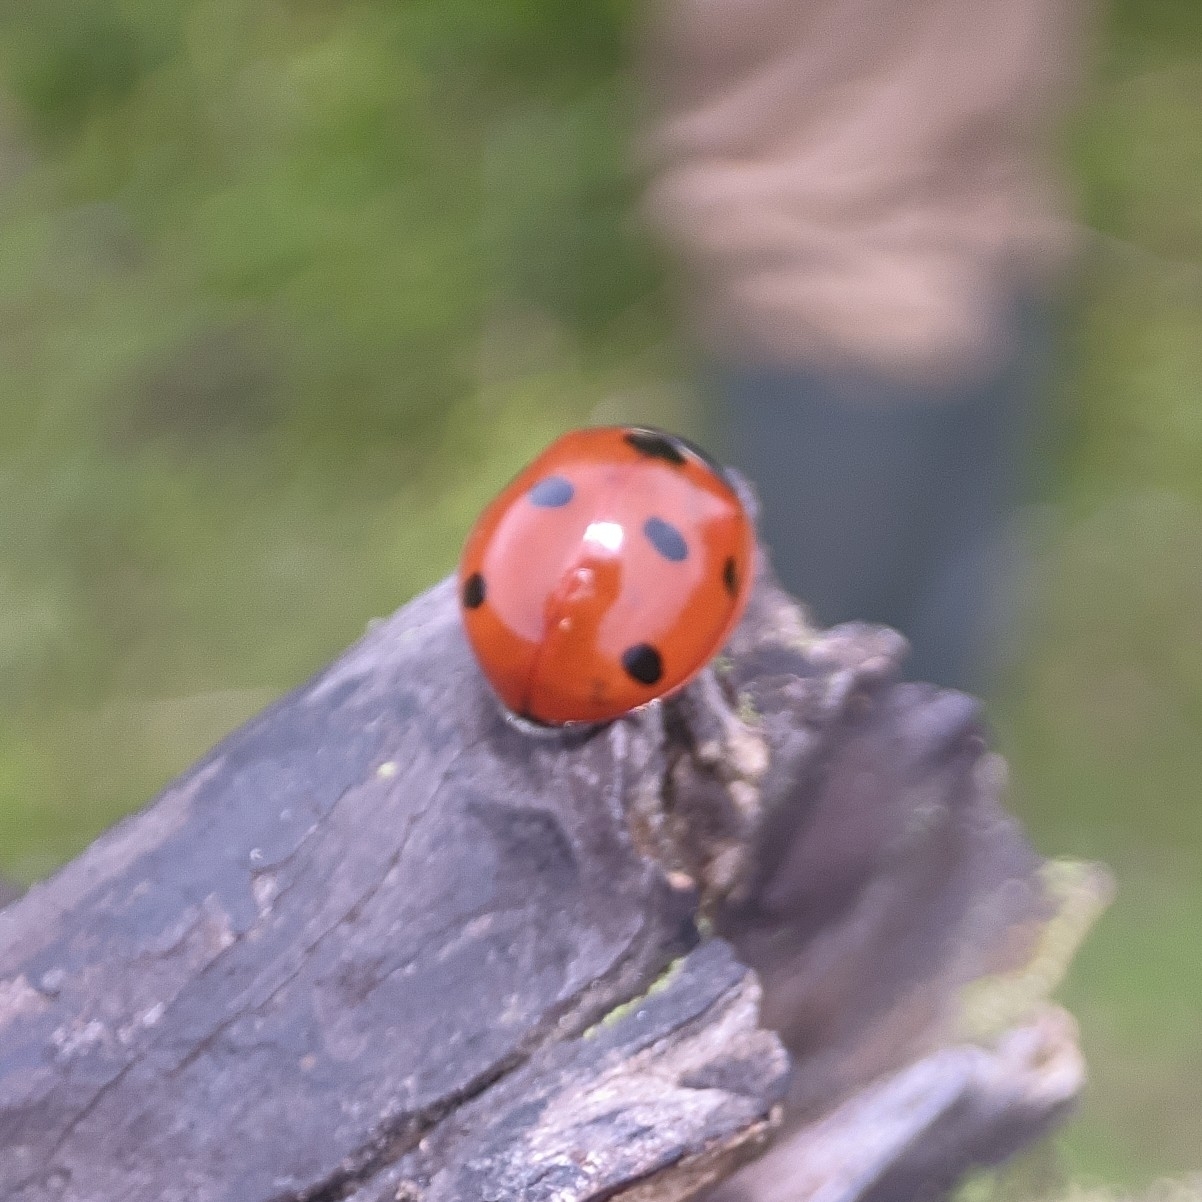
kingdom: Animalia
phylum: Arthropoda
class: Insecta
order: Coleoptera
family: Coccinellidae
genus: Coccinella
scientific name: Coccinella septempunctata
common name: Sevenspotted lady beetle
